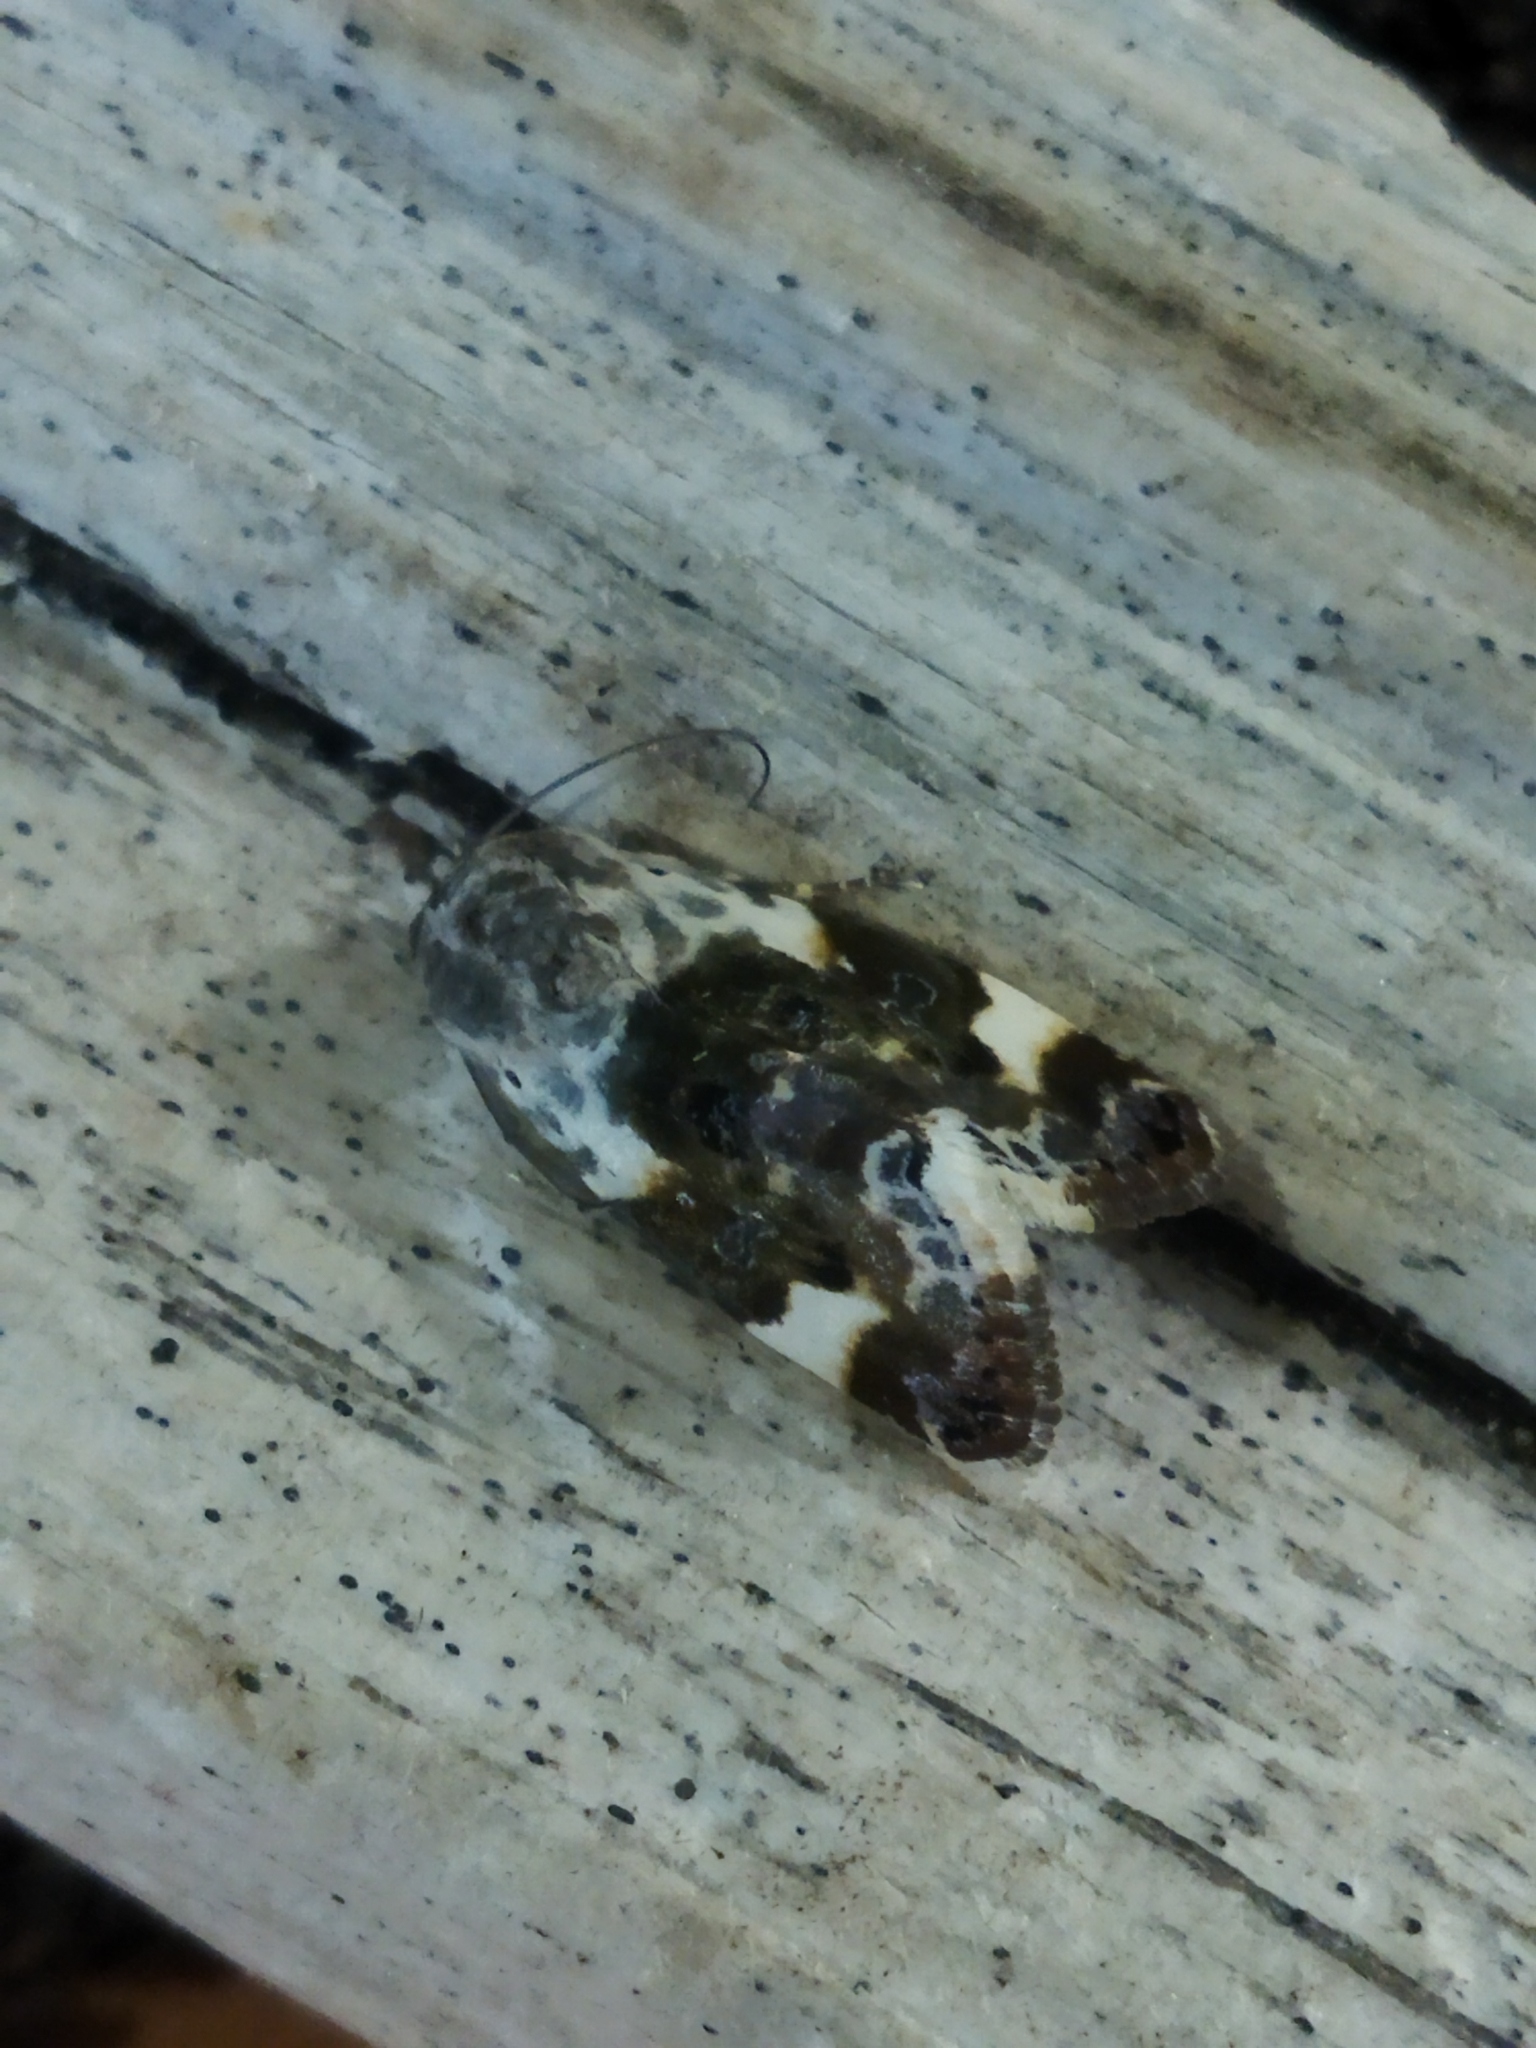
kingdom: Animalia
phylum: Arthropoda
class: Insecta
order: Lepidoptera
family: Noctuidae
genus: Acontia
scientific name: Acontia lucida
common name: Pale shoulder
